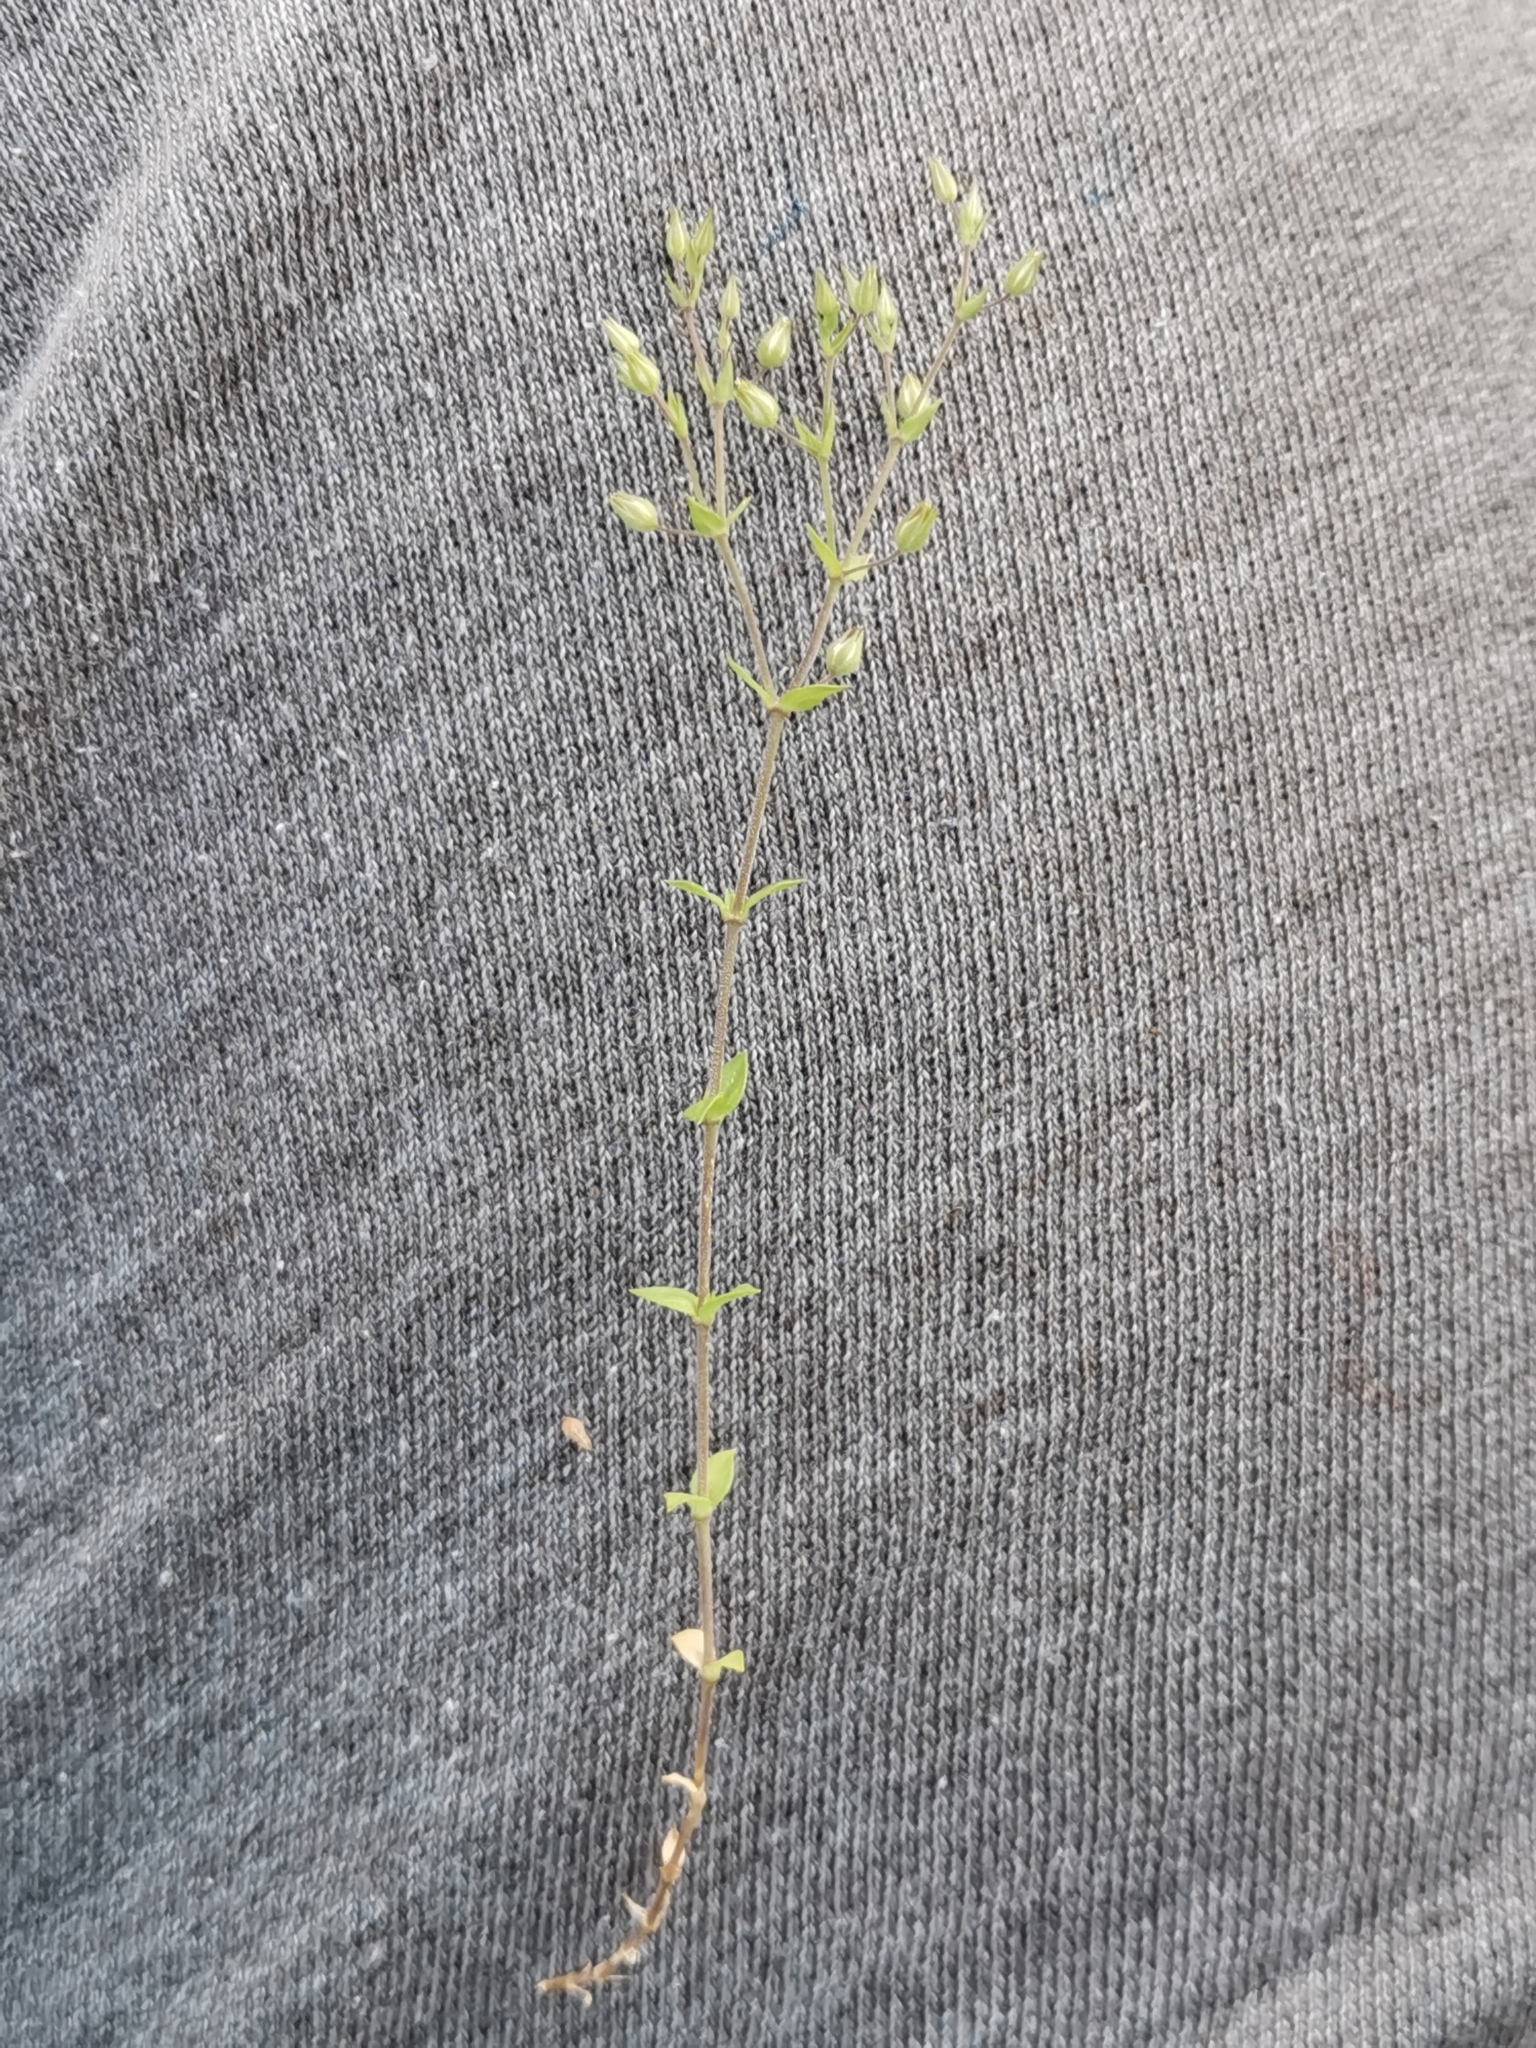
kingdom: Plantae
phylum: Tracheophyta
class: Magnoliopsida
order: Caryophyllales
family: Caryophyllaceae
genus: Arenaria
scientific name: Arenaria serpyllifolia
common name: Thyme-leaved sandwort
